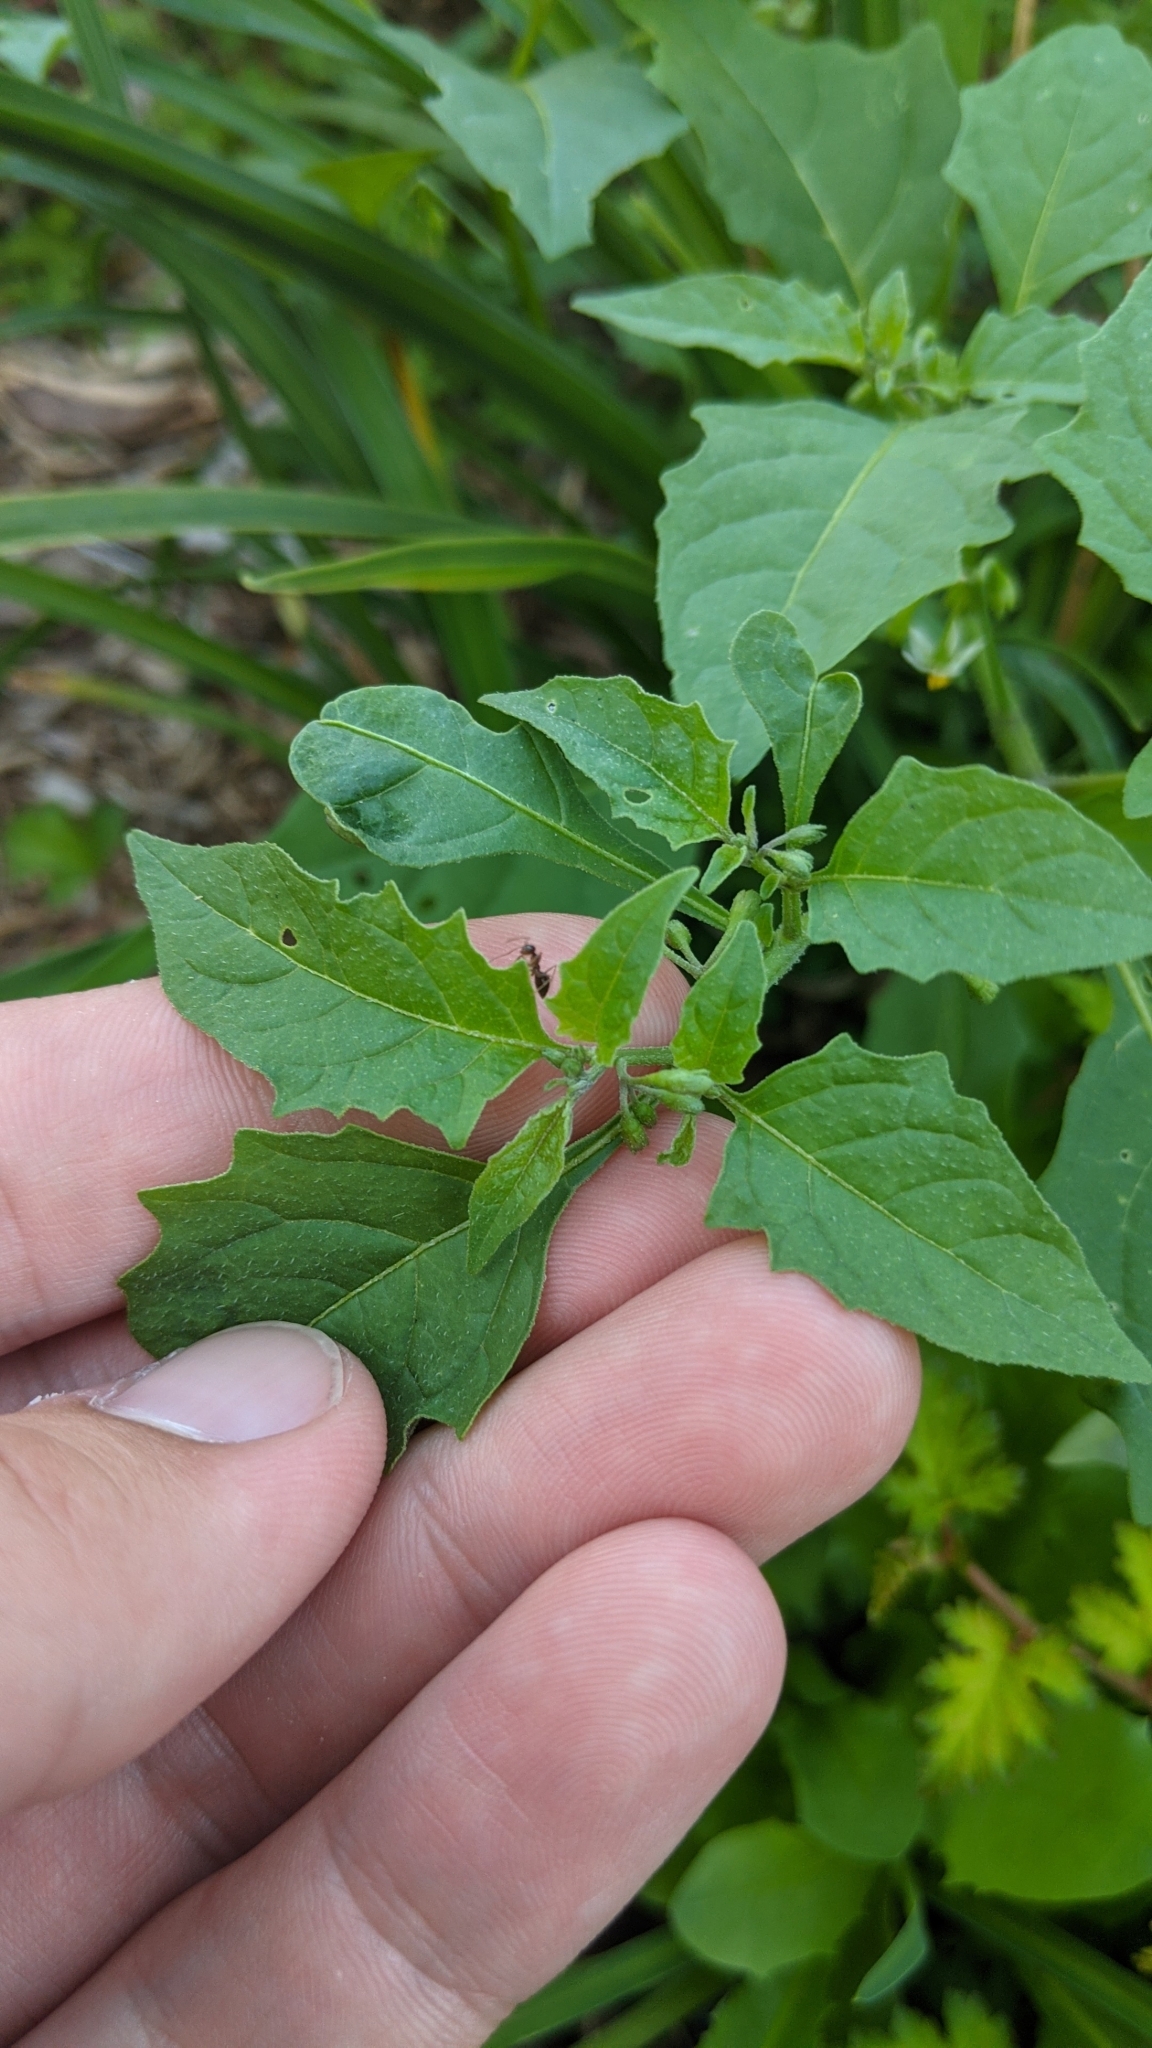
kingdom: Plantae
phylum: Tracheophyta
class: Magnoliopsida
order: Solanales
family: Solanaceae
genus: Solanum
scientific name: Solanum emulans
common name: Eastern black nightshade
